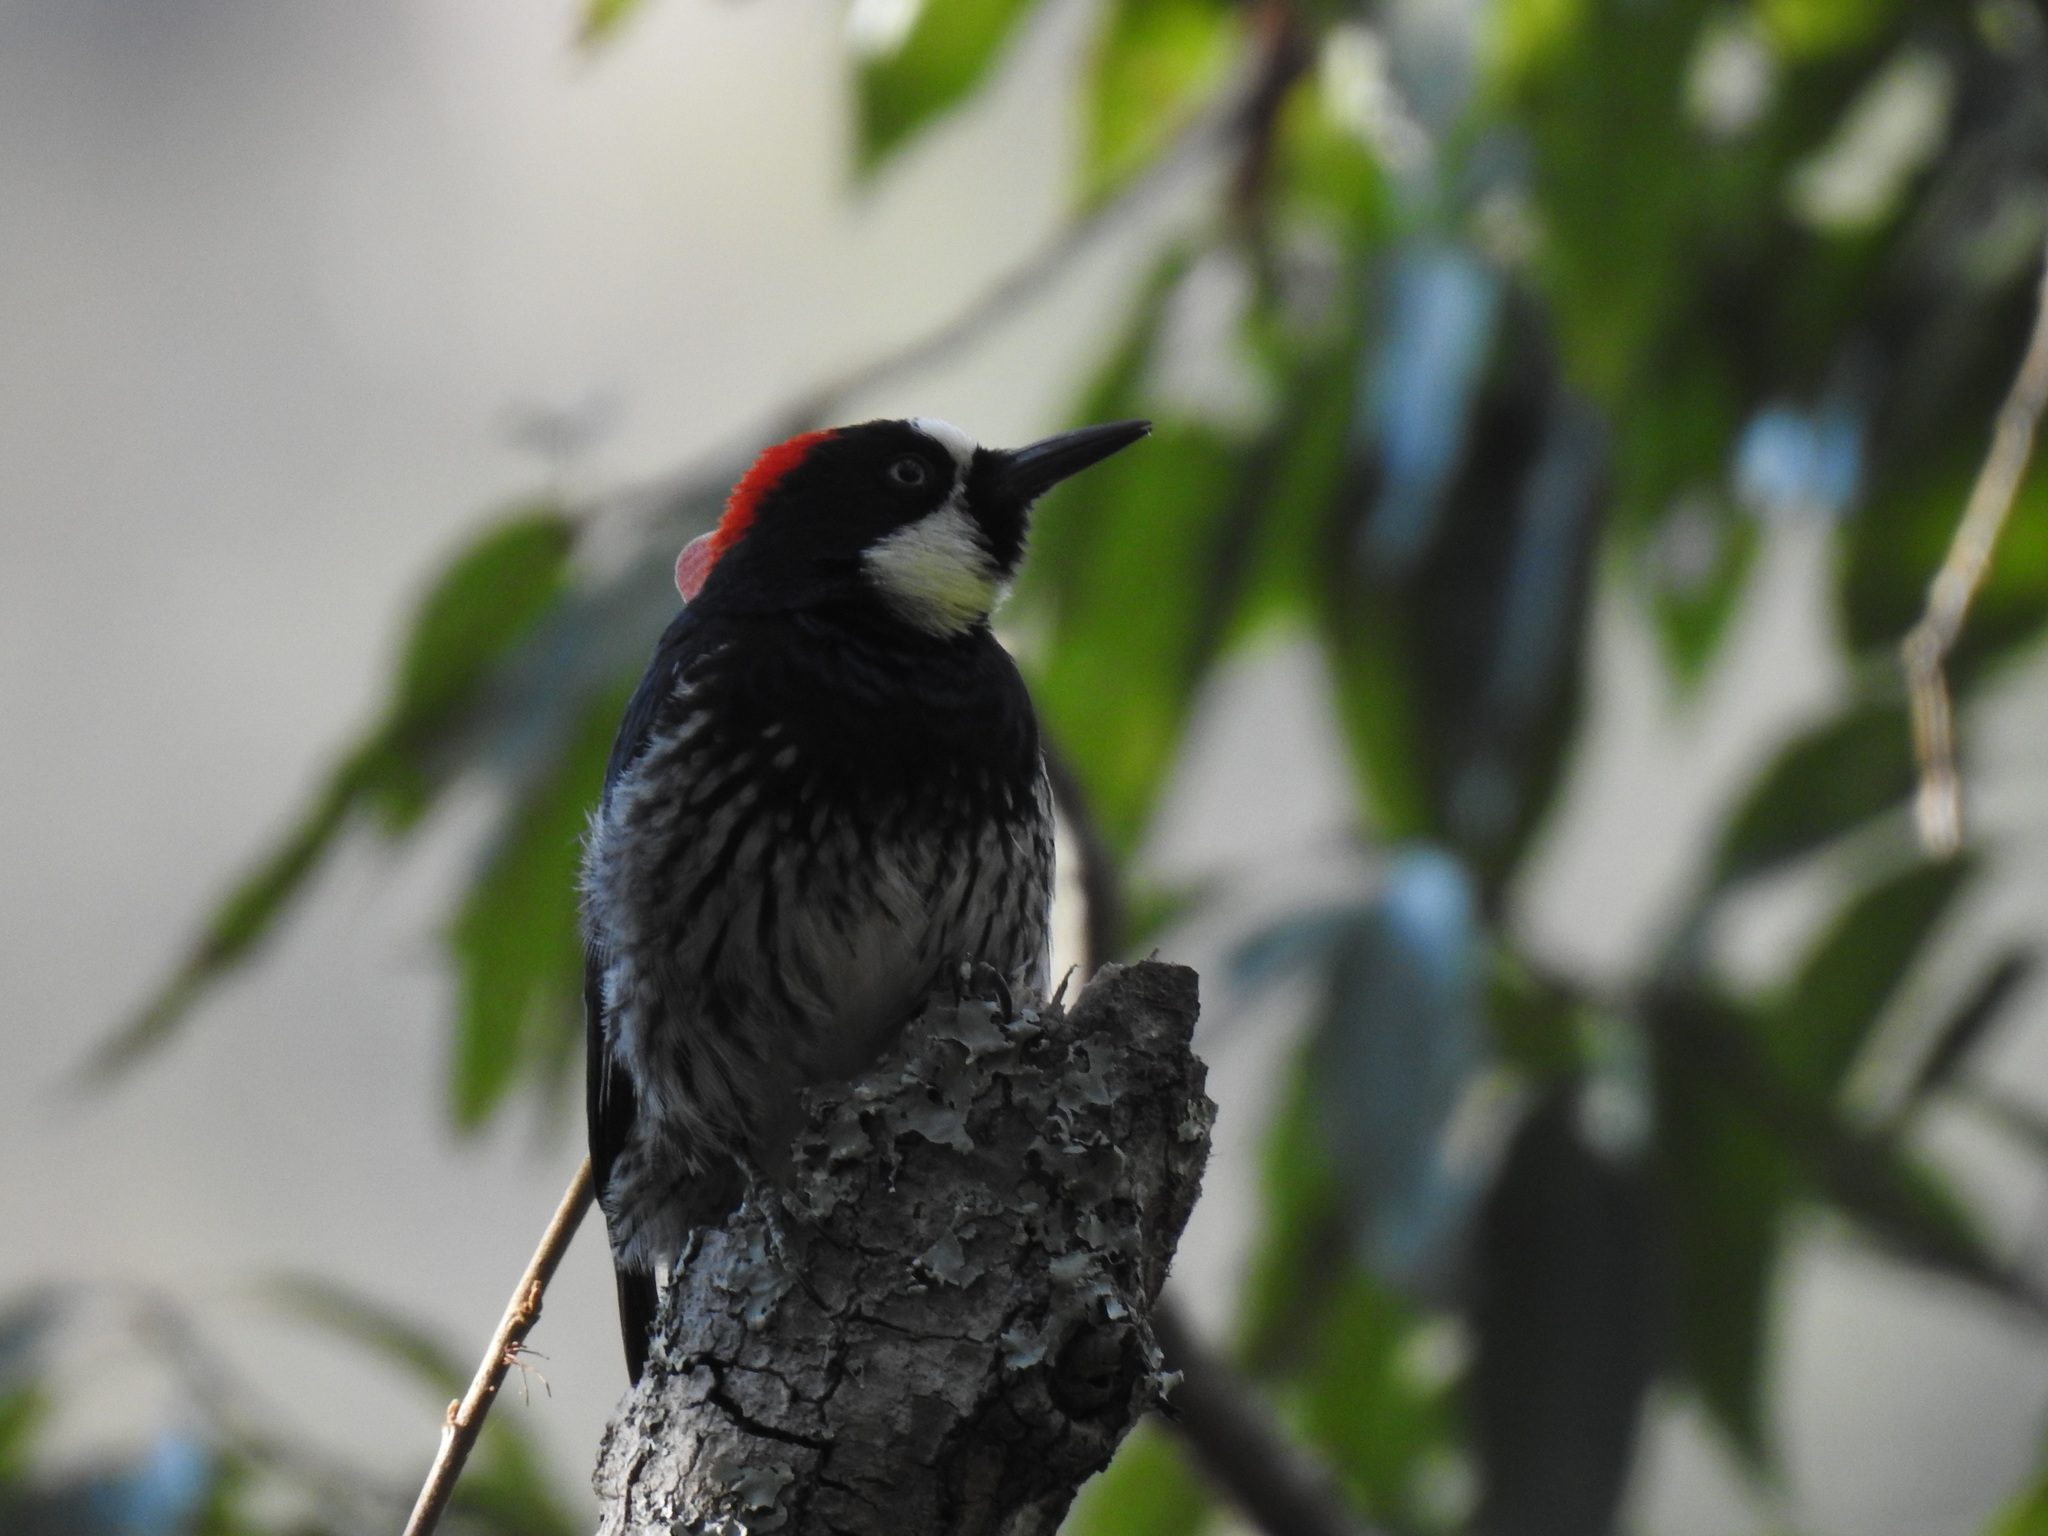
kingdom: Animalia
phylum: Chordata
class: Aves
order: Piciformes
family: Picidae
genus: Melanerpes
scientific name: Melanerpes formicivorus
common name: Acorn woodpecker
